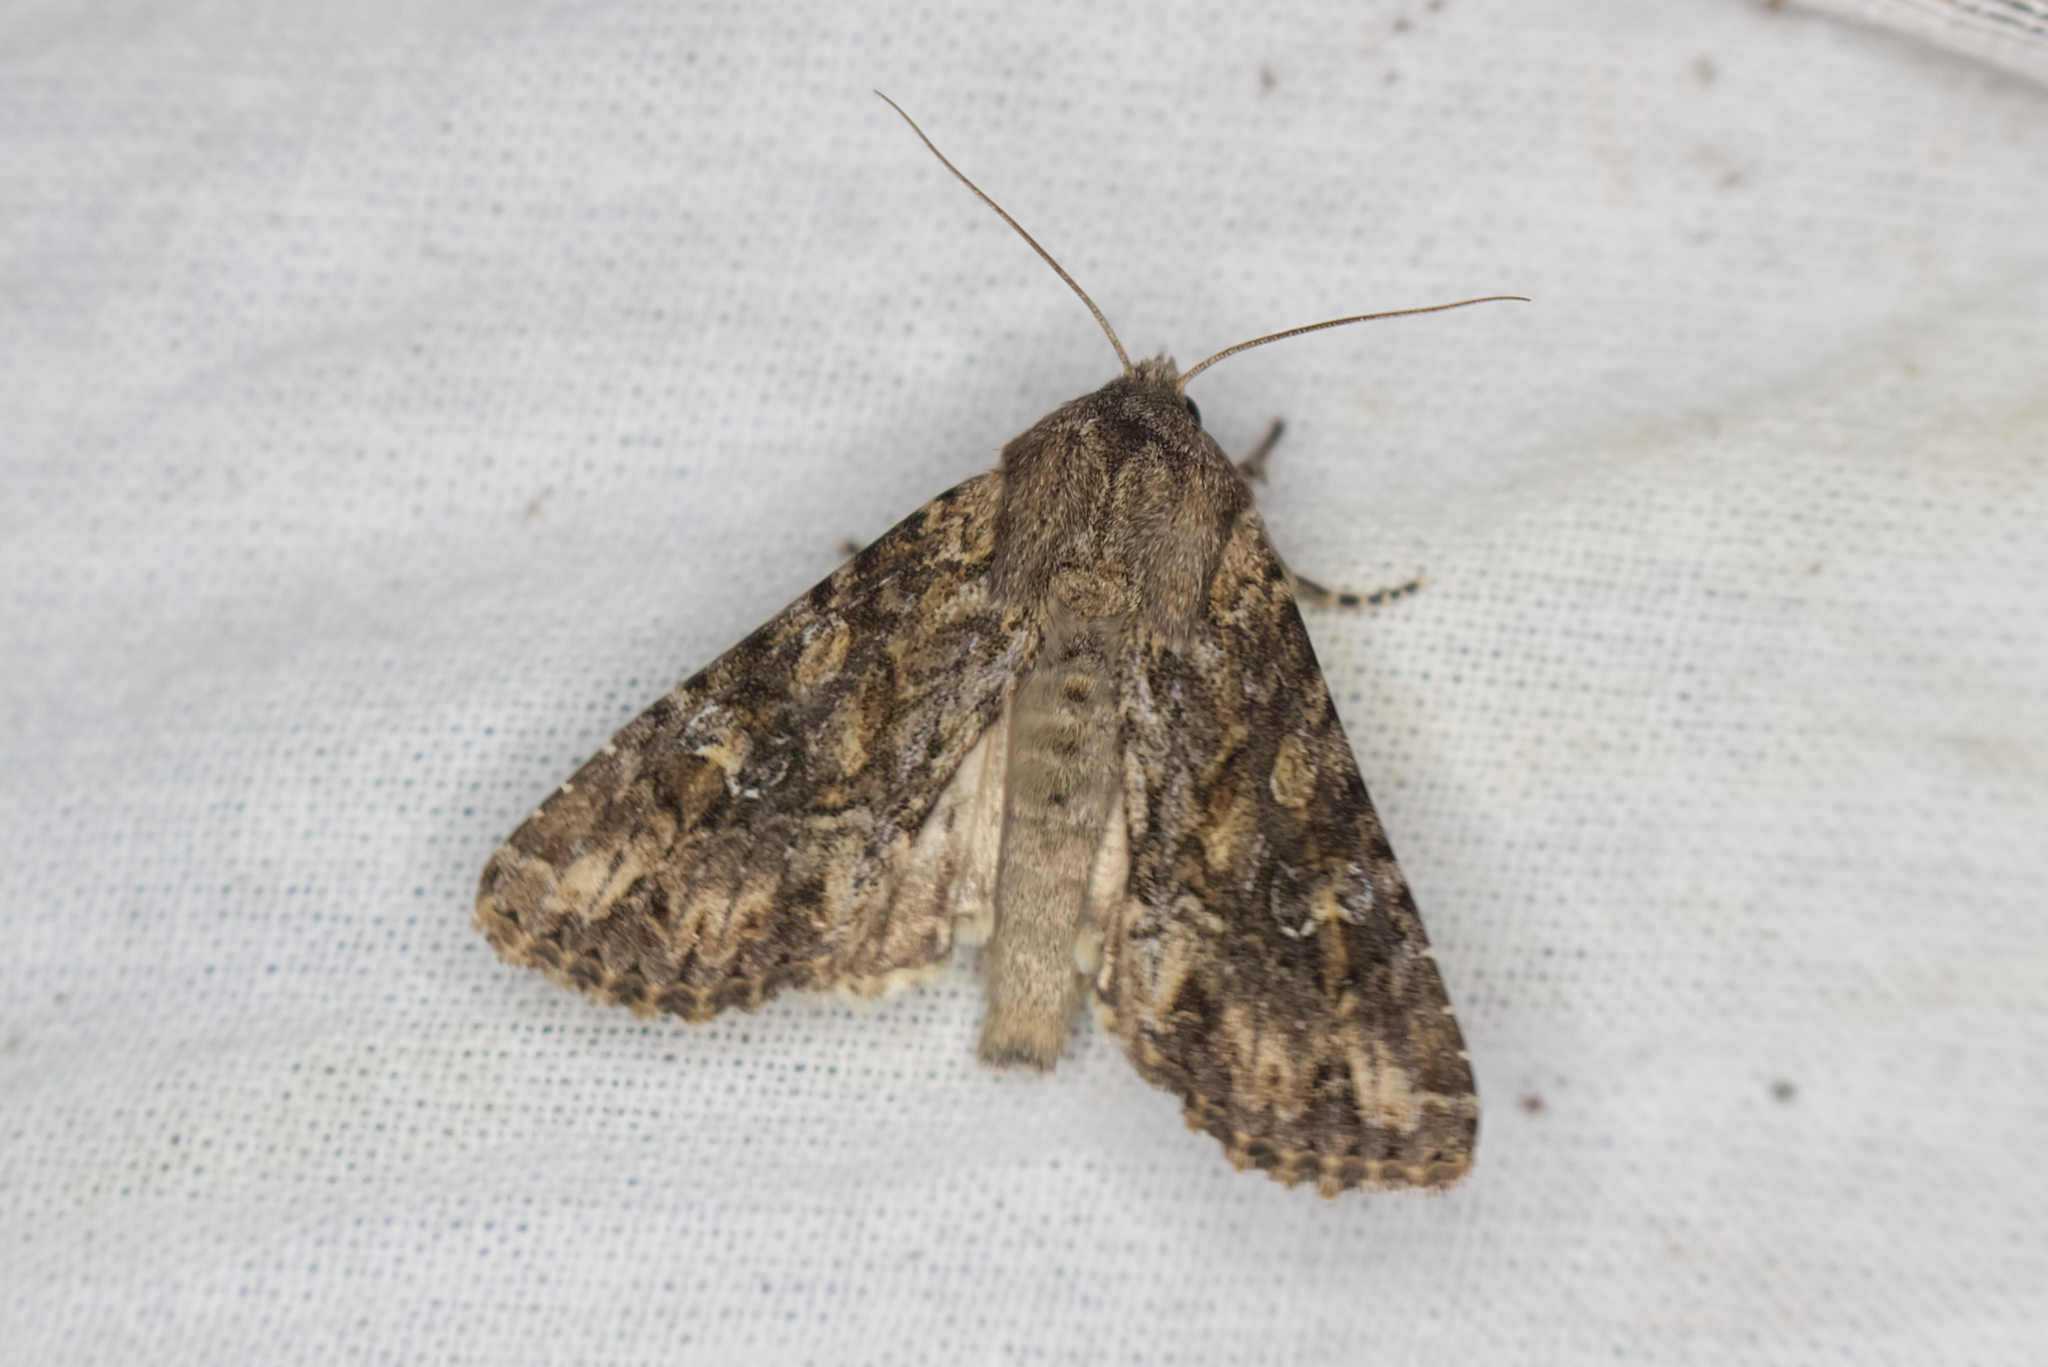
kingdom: Animalia
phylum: Arthropoda
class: Insecta
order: Lepidoptera
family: Noctuidae
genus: Apamea
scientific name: Apamea anceps
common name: Large nutmeg
